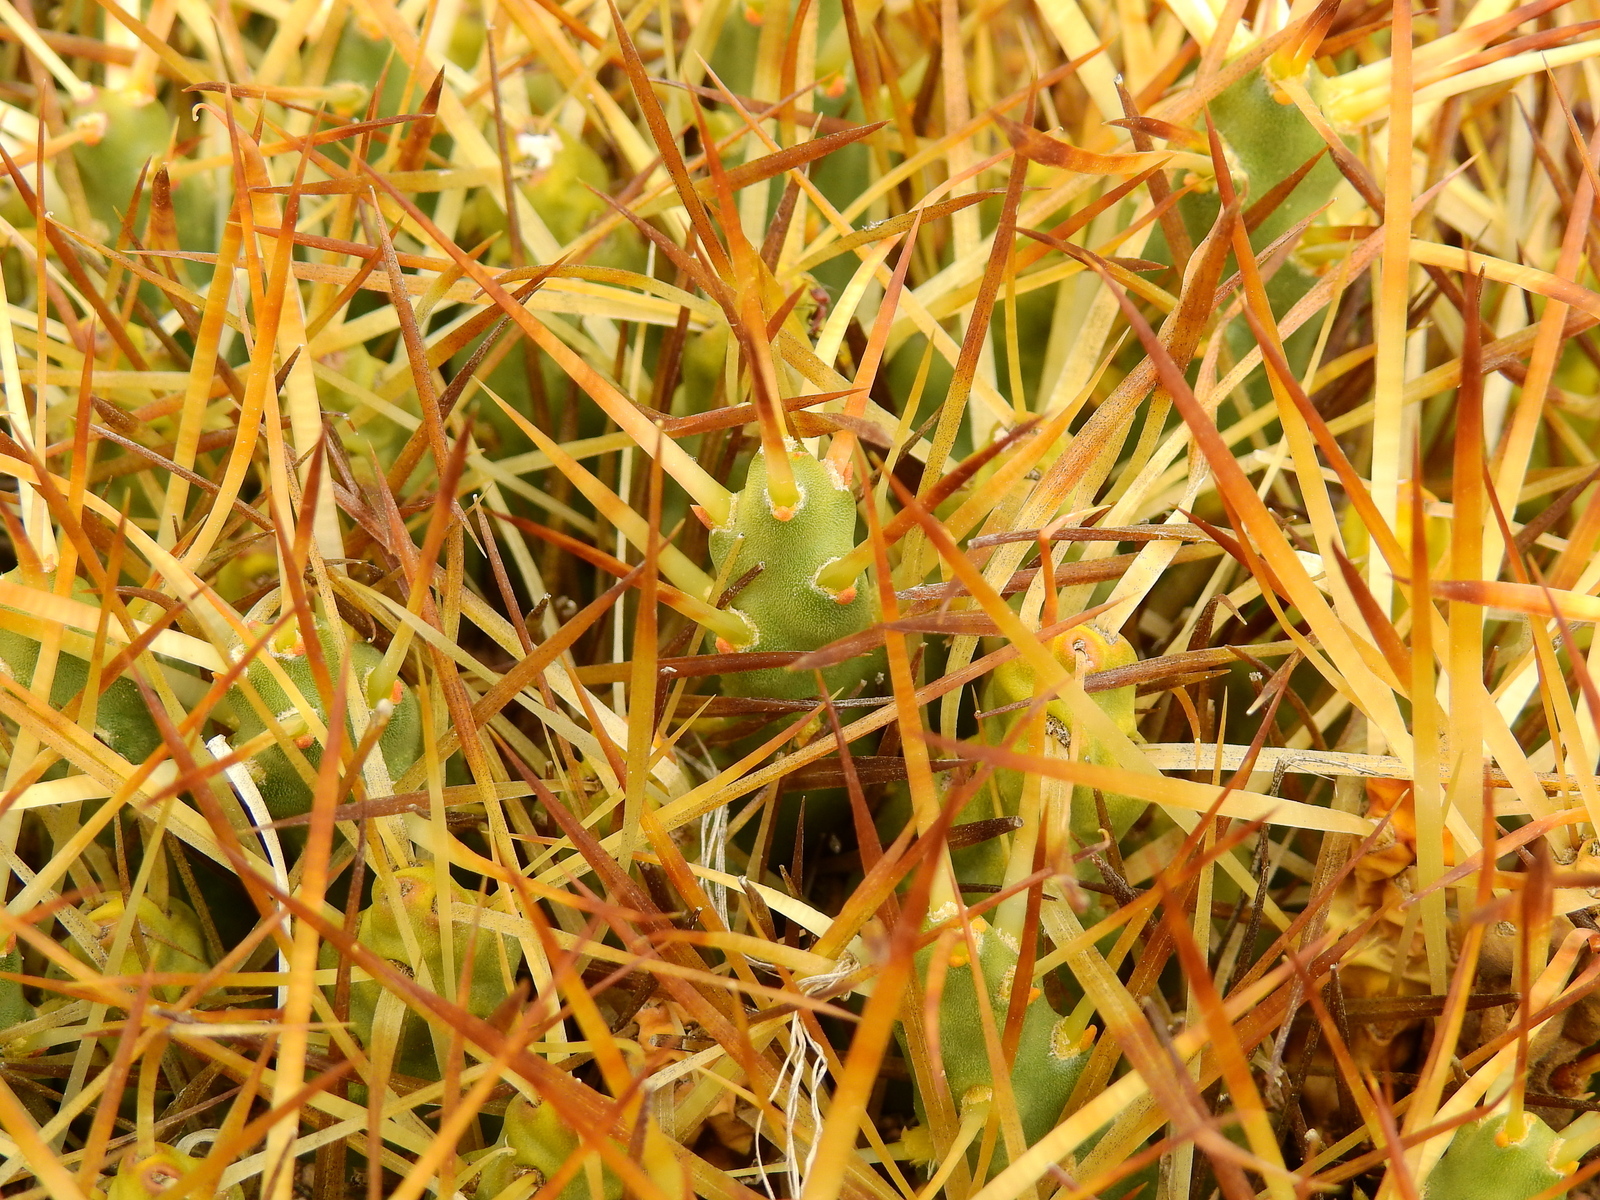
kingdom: Plantae
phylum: Tracheophyta
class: Magnoliopsida
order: Caryophyllales
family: Cactaceae
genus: Maihueniopsis
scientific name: Maihueniopsis glomerata
